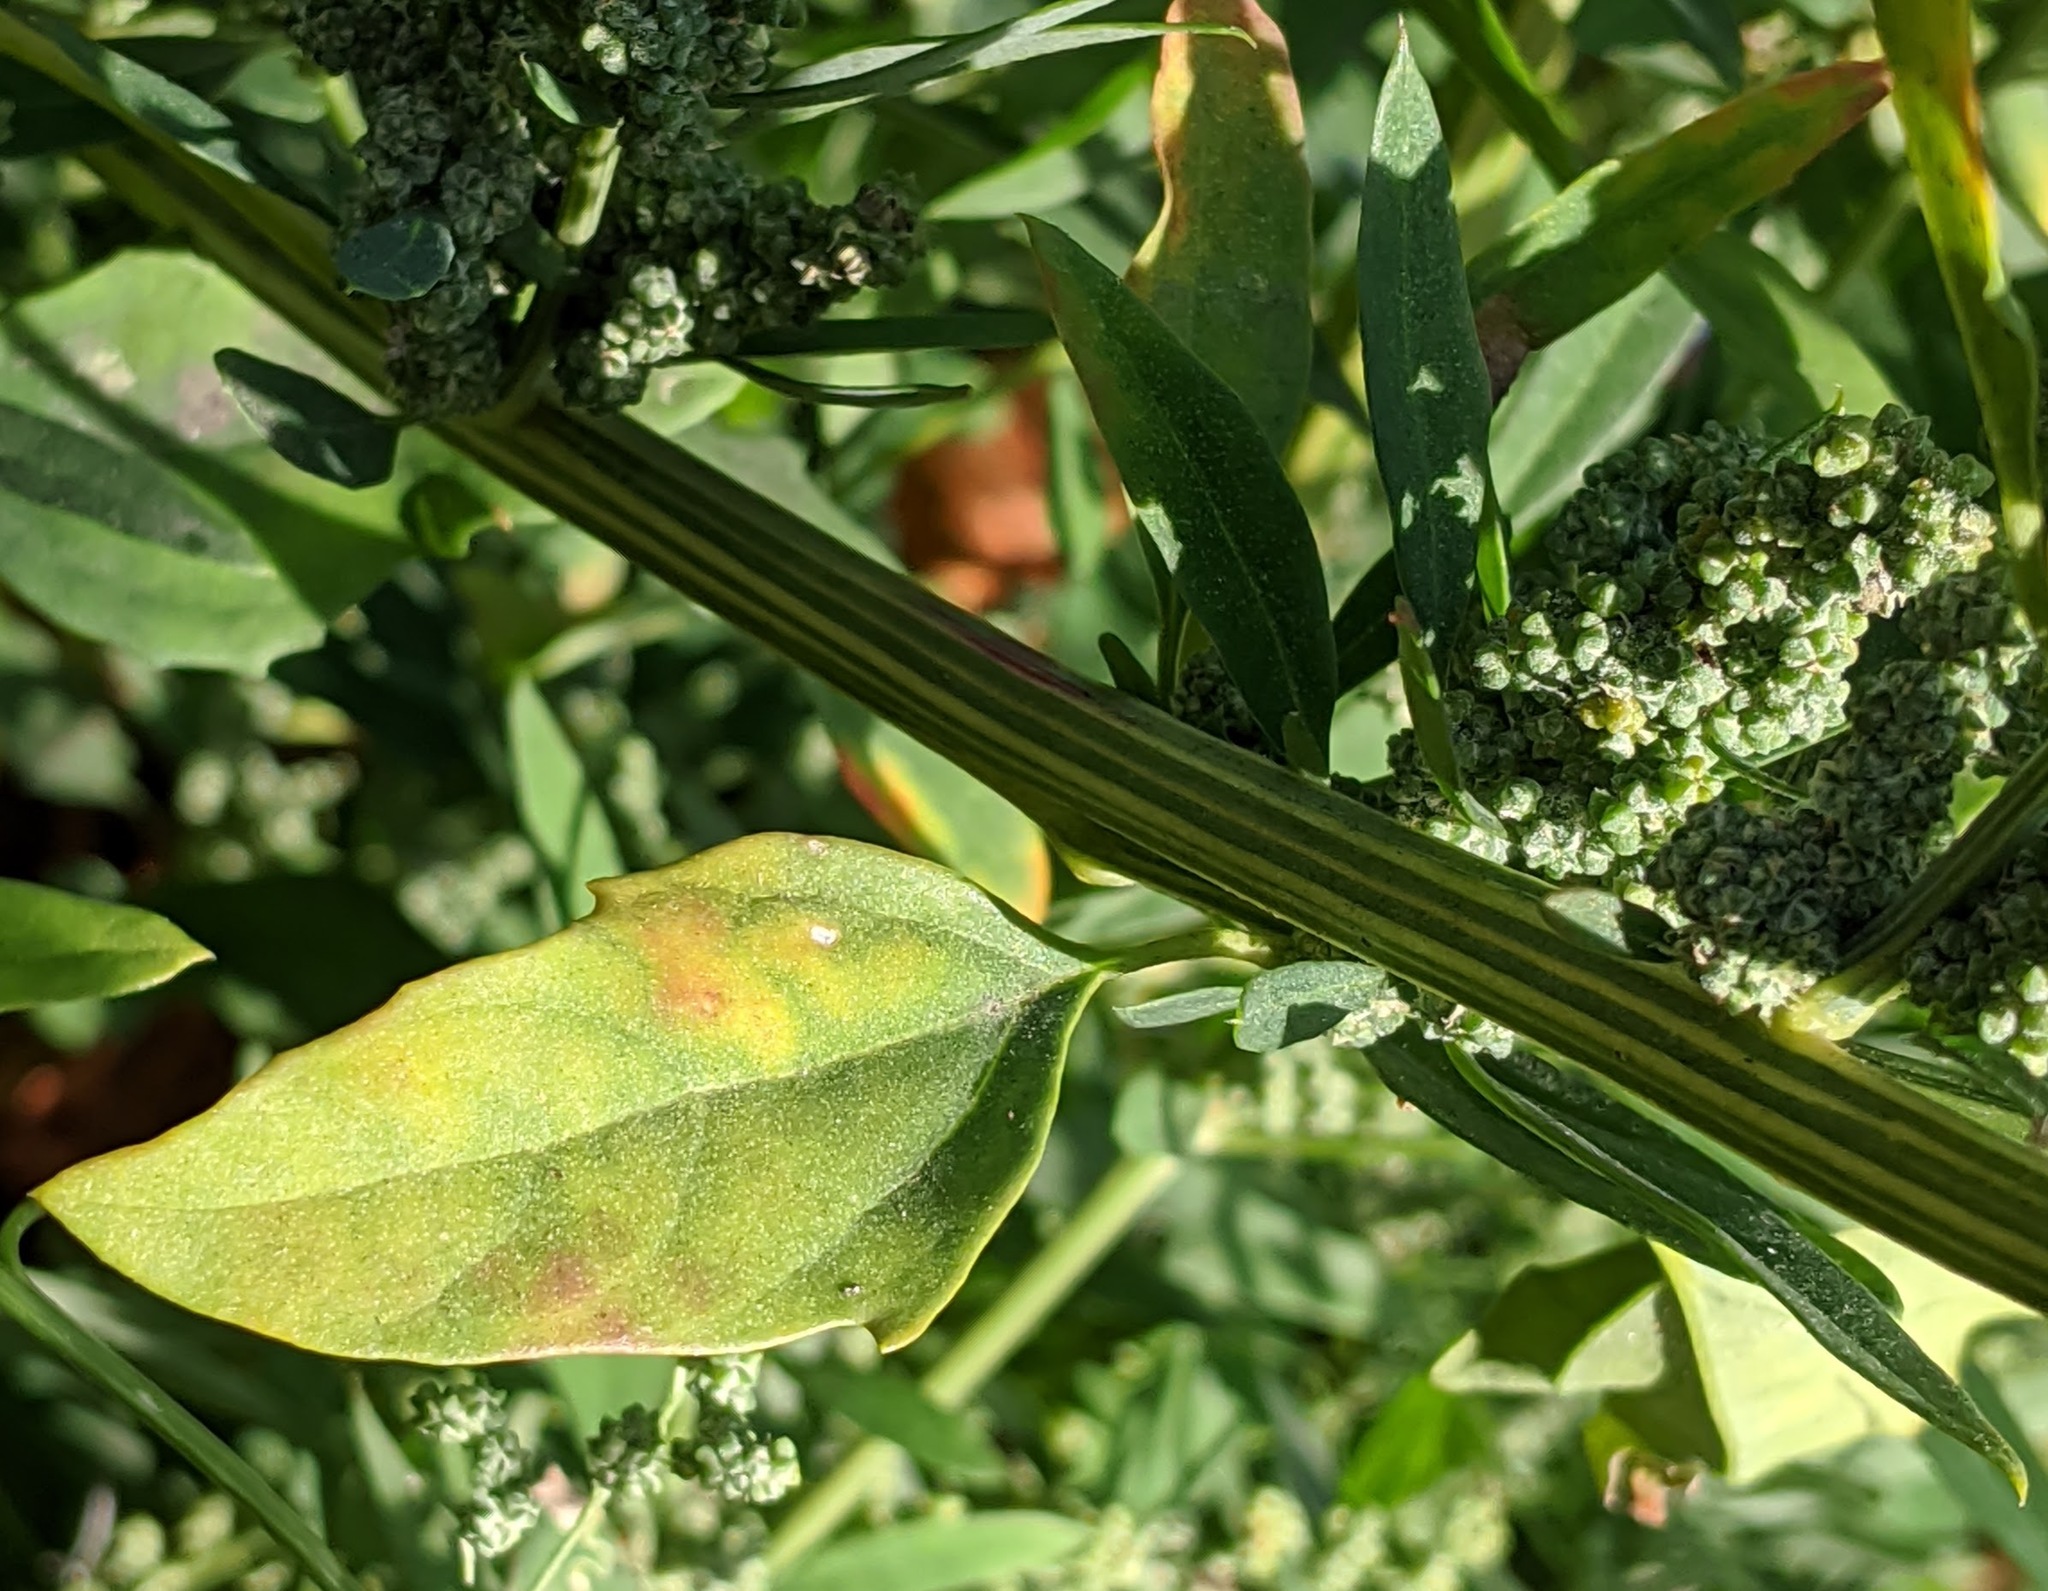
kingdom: Plantae
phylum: Tracheophyta
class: Magnoliopsida
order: Caryophyllales
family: Amaranthaceae
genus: Chenopodium
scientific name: Chenopodium album
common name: Fat-hen
